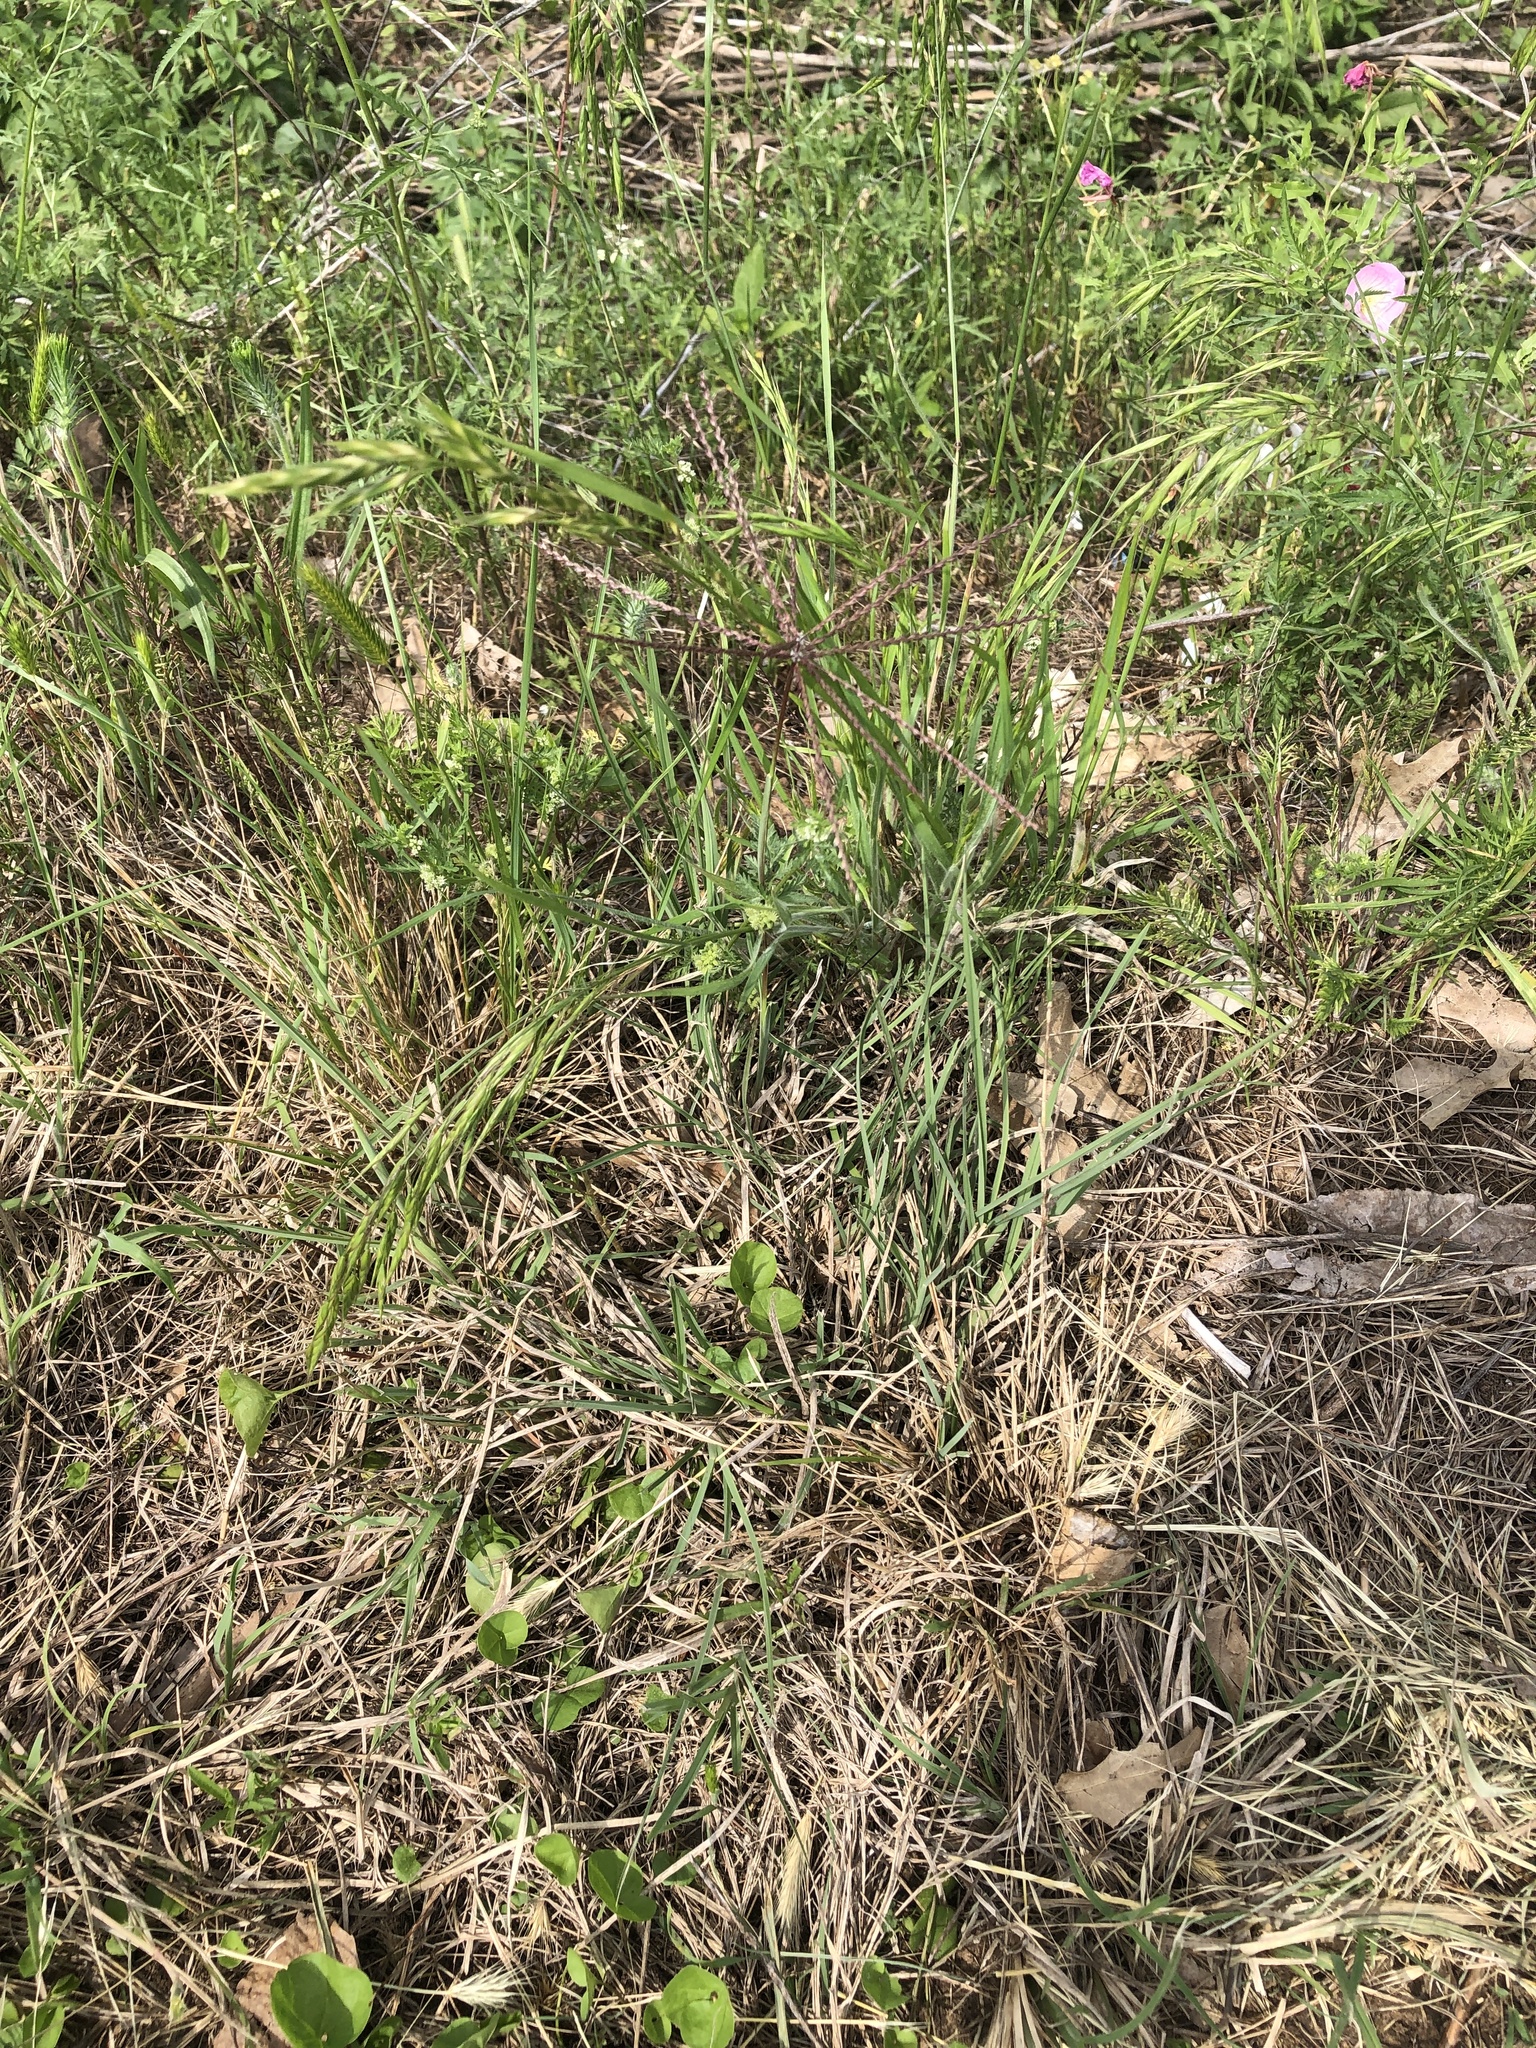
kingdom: Plantae
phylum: Tracheophyta
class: Liliopsida
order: Poales
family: Poaceae
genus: Chloris
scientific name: Chloris verticillata
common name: Tumble windmill grass
